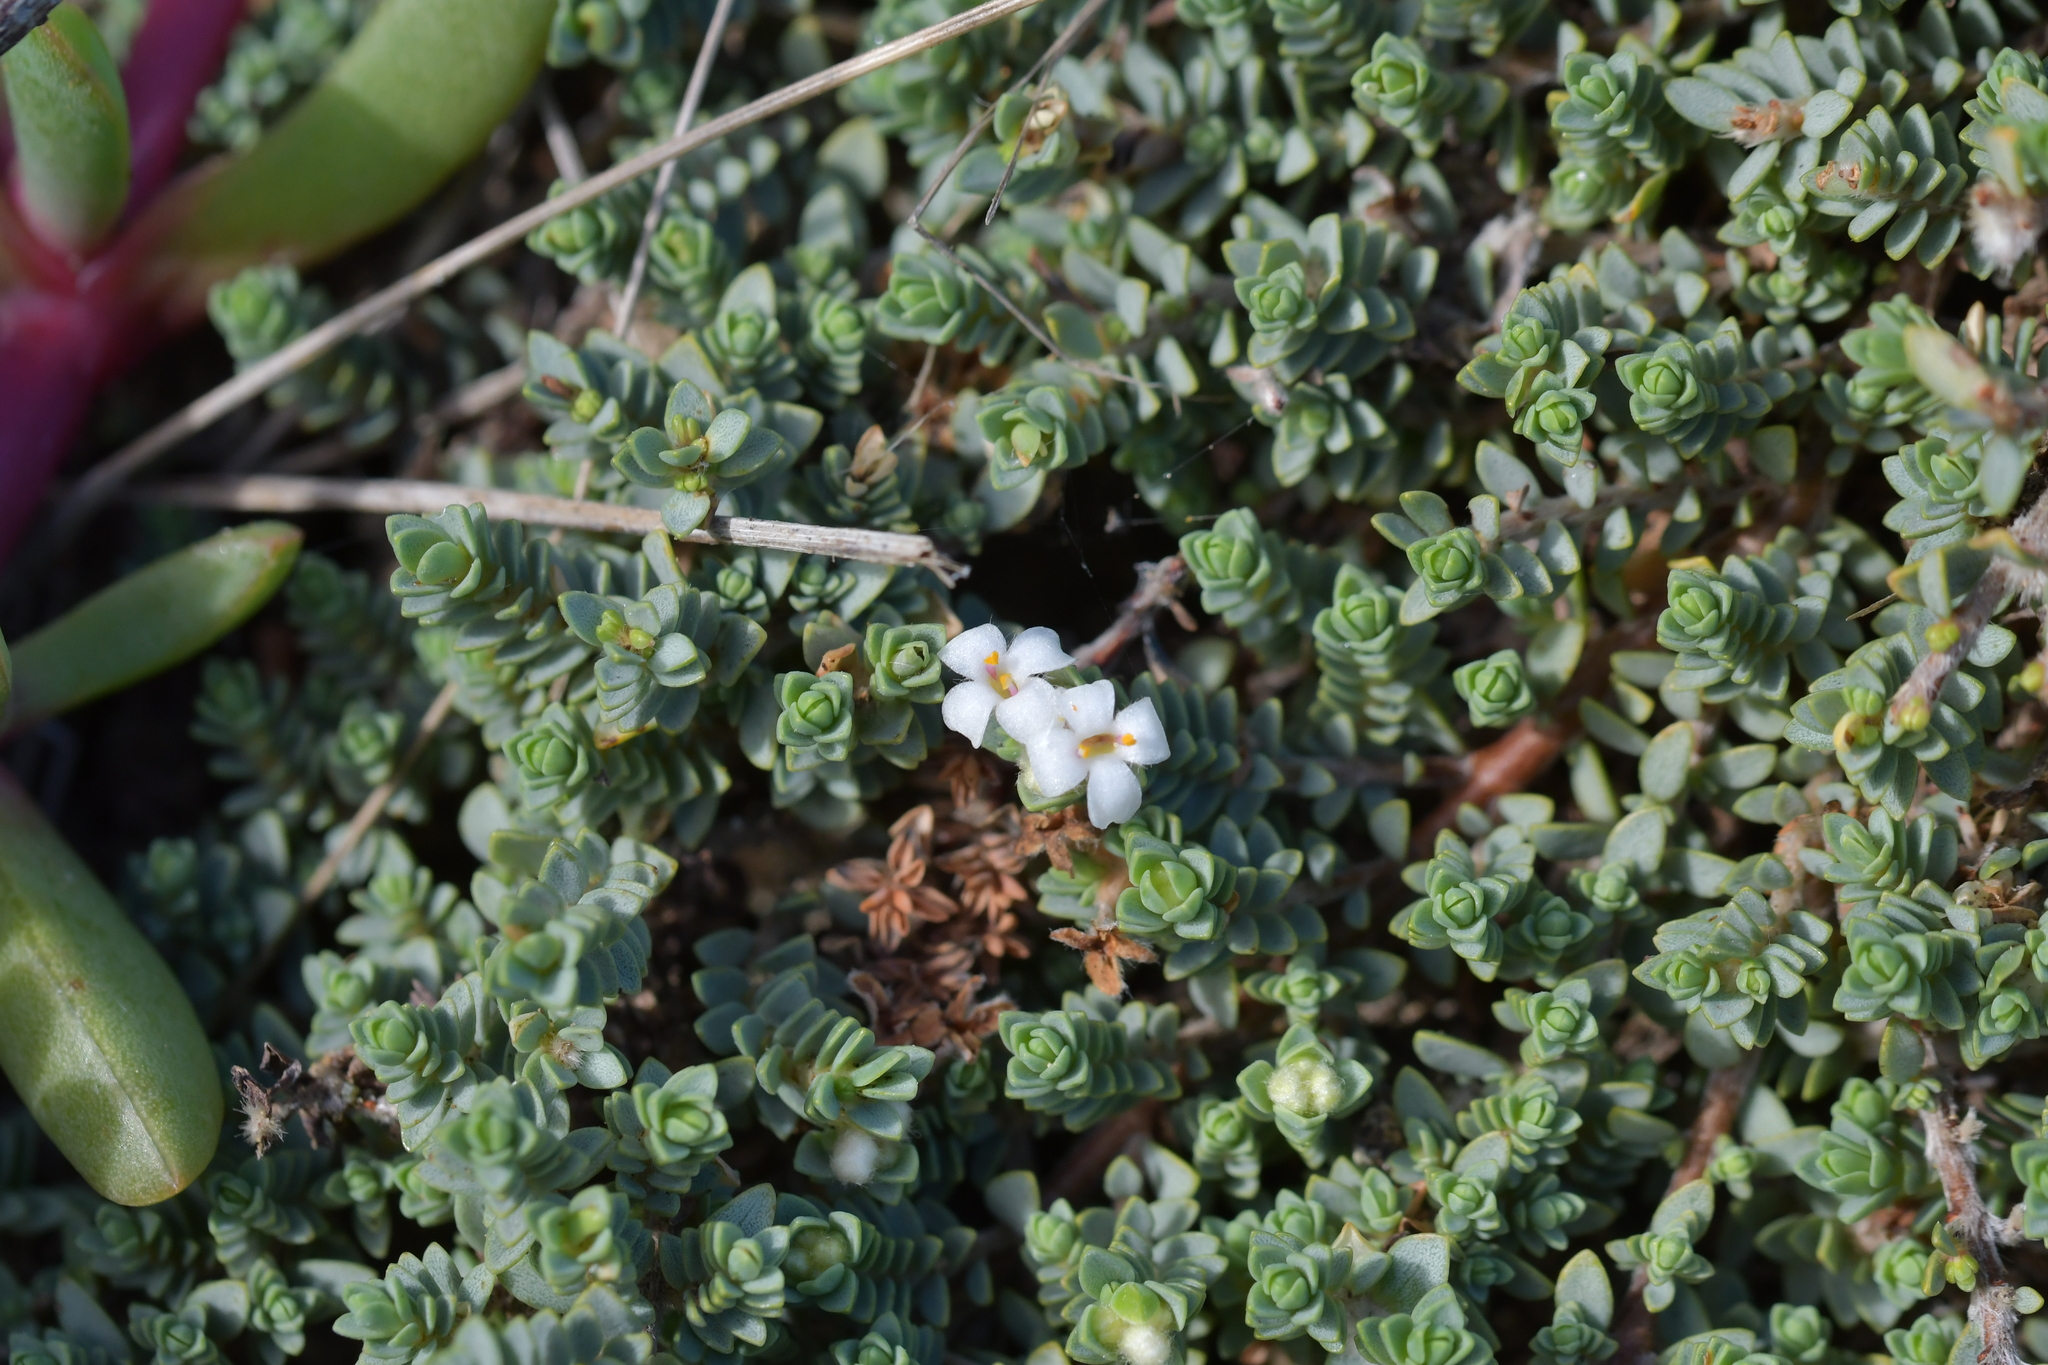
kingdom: Plantae
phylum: Tracheophyta
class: Magnoliopsida
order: Malvales
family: Thymelaeaceae
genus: Pimelea
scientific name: Pimelea carnosa
